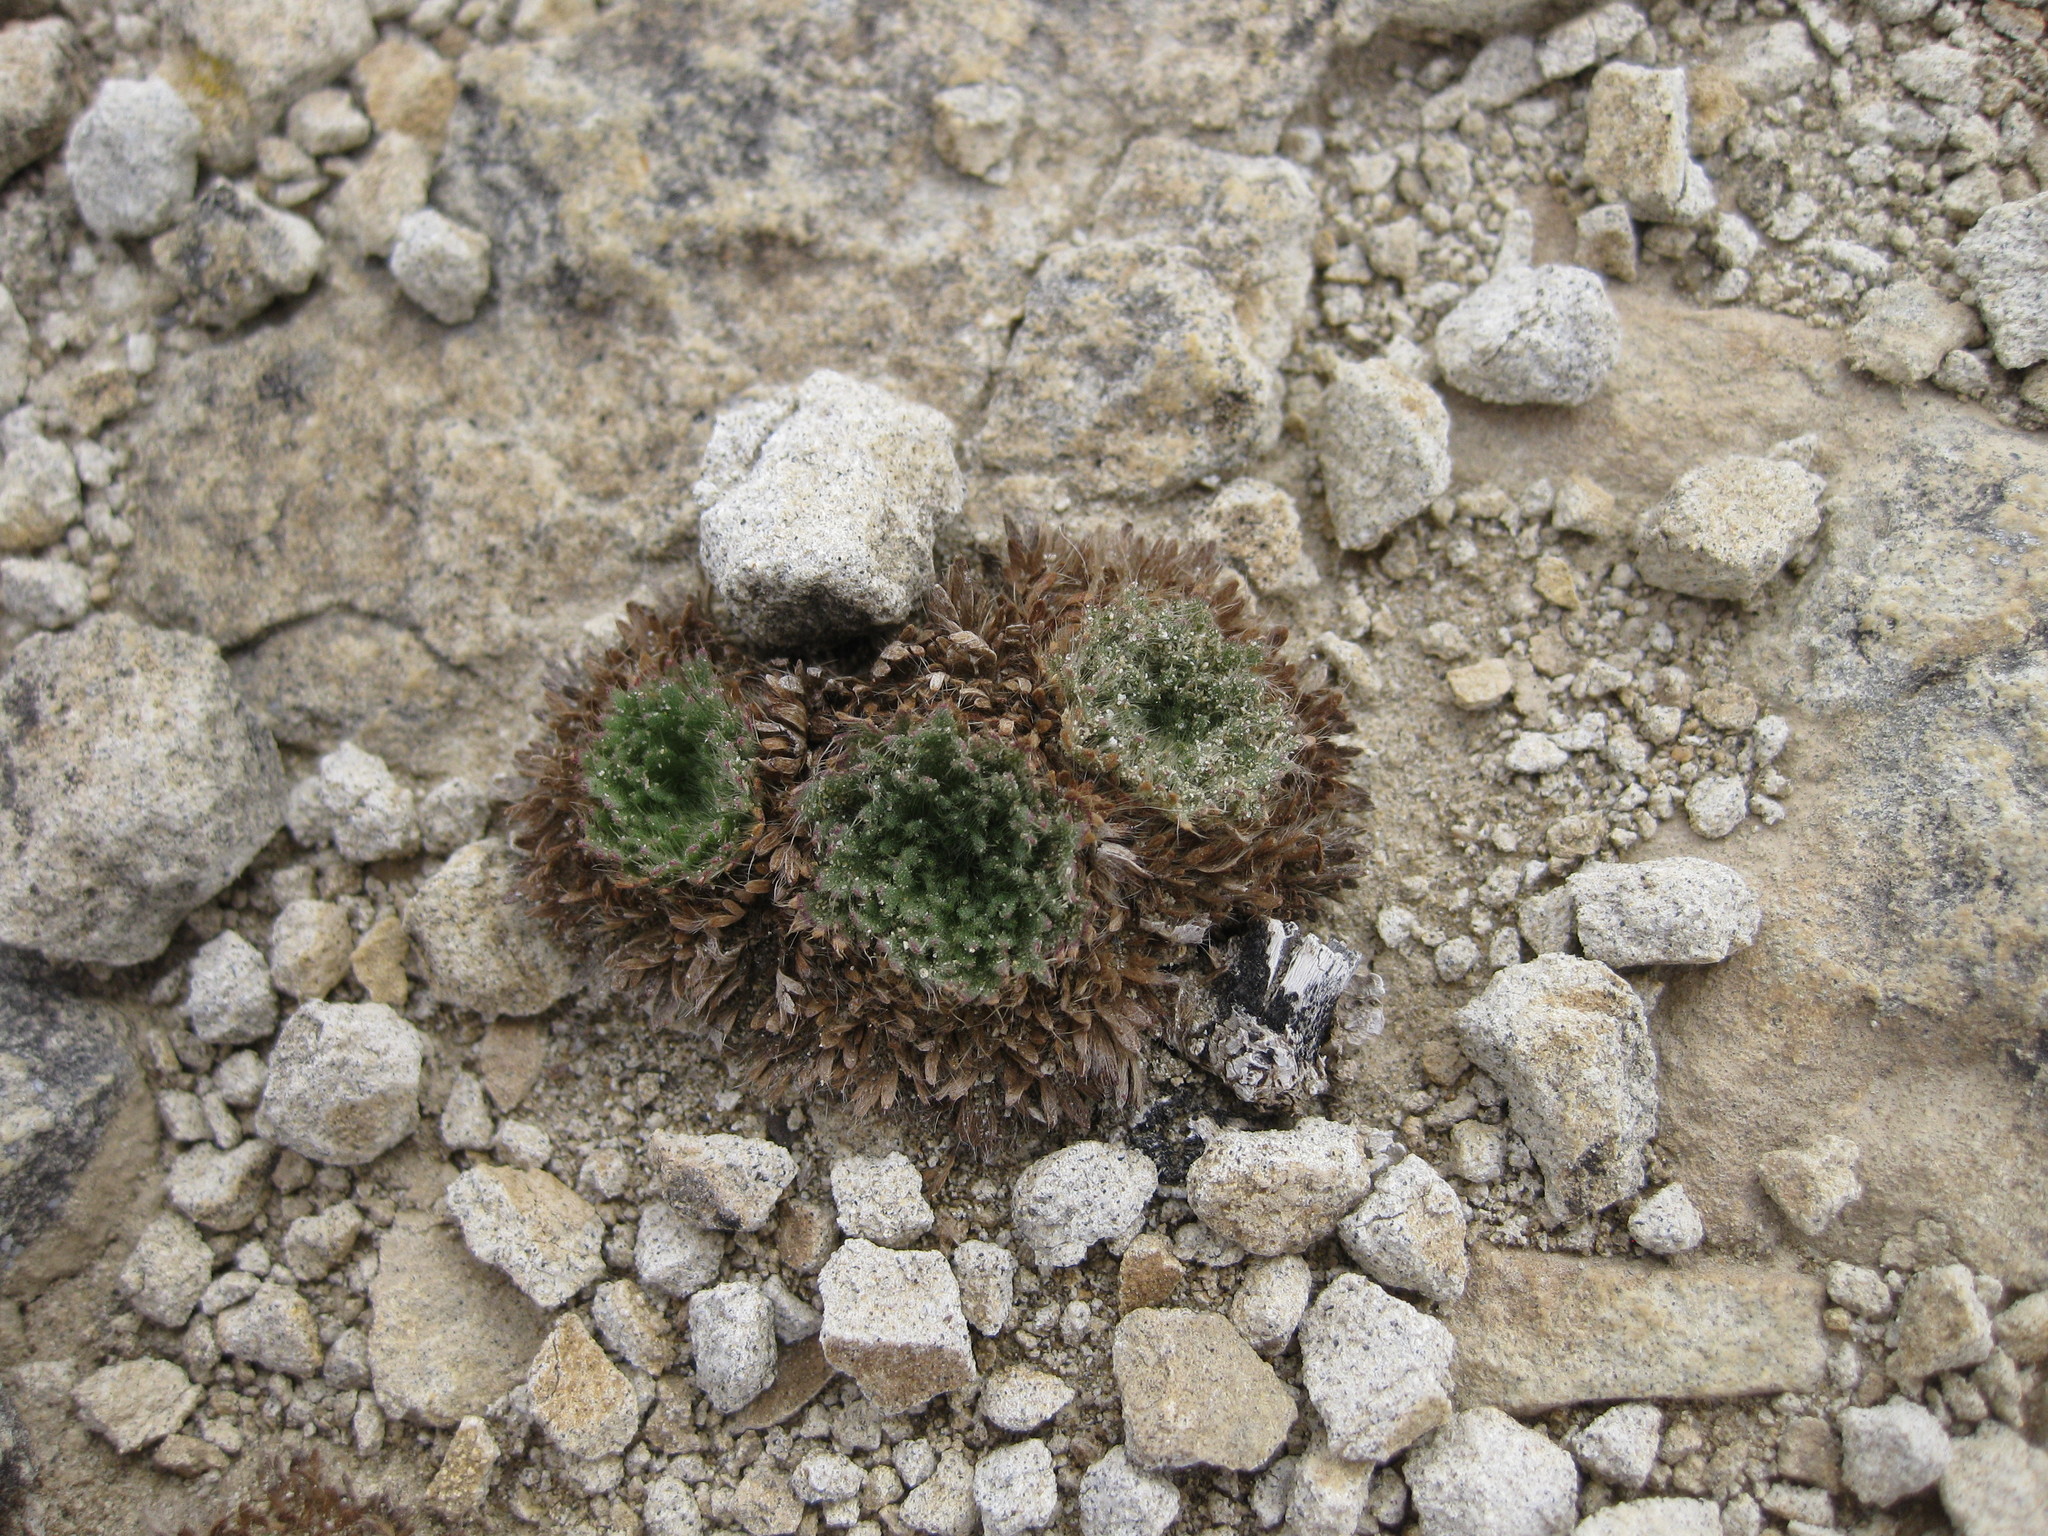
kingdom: Plantae
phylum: Tracheophyta
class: Magnoliopsida
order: Rosales
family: Rosaceae
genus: Chamaerhodos
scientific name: Chamaerhodos erecta
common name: American chamaerhodos
